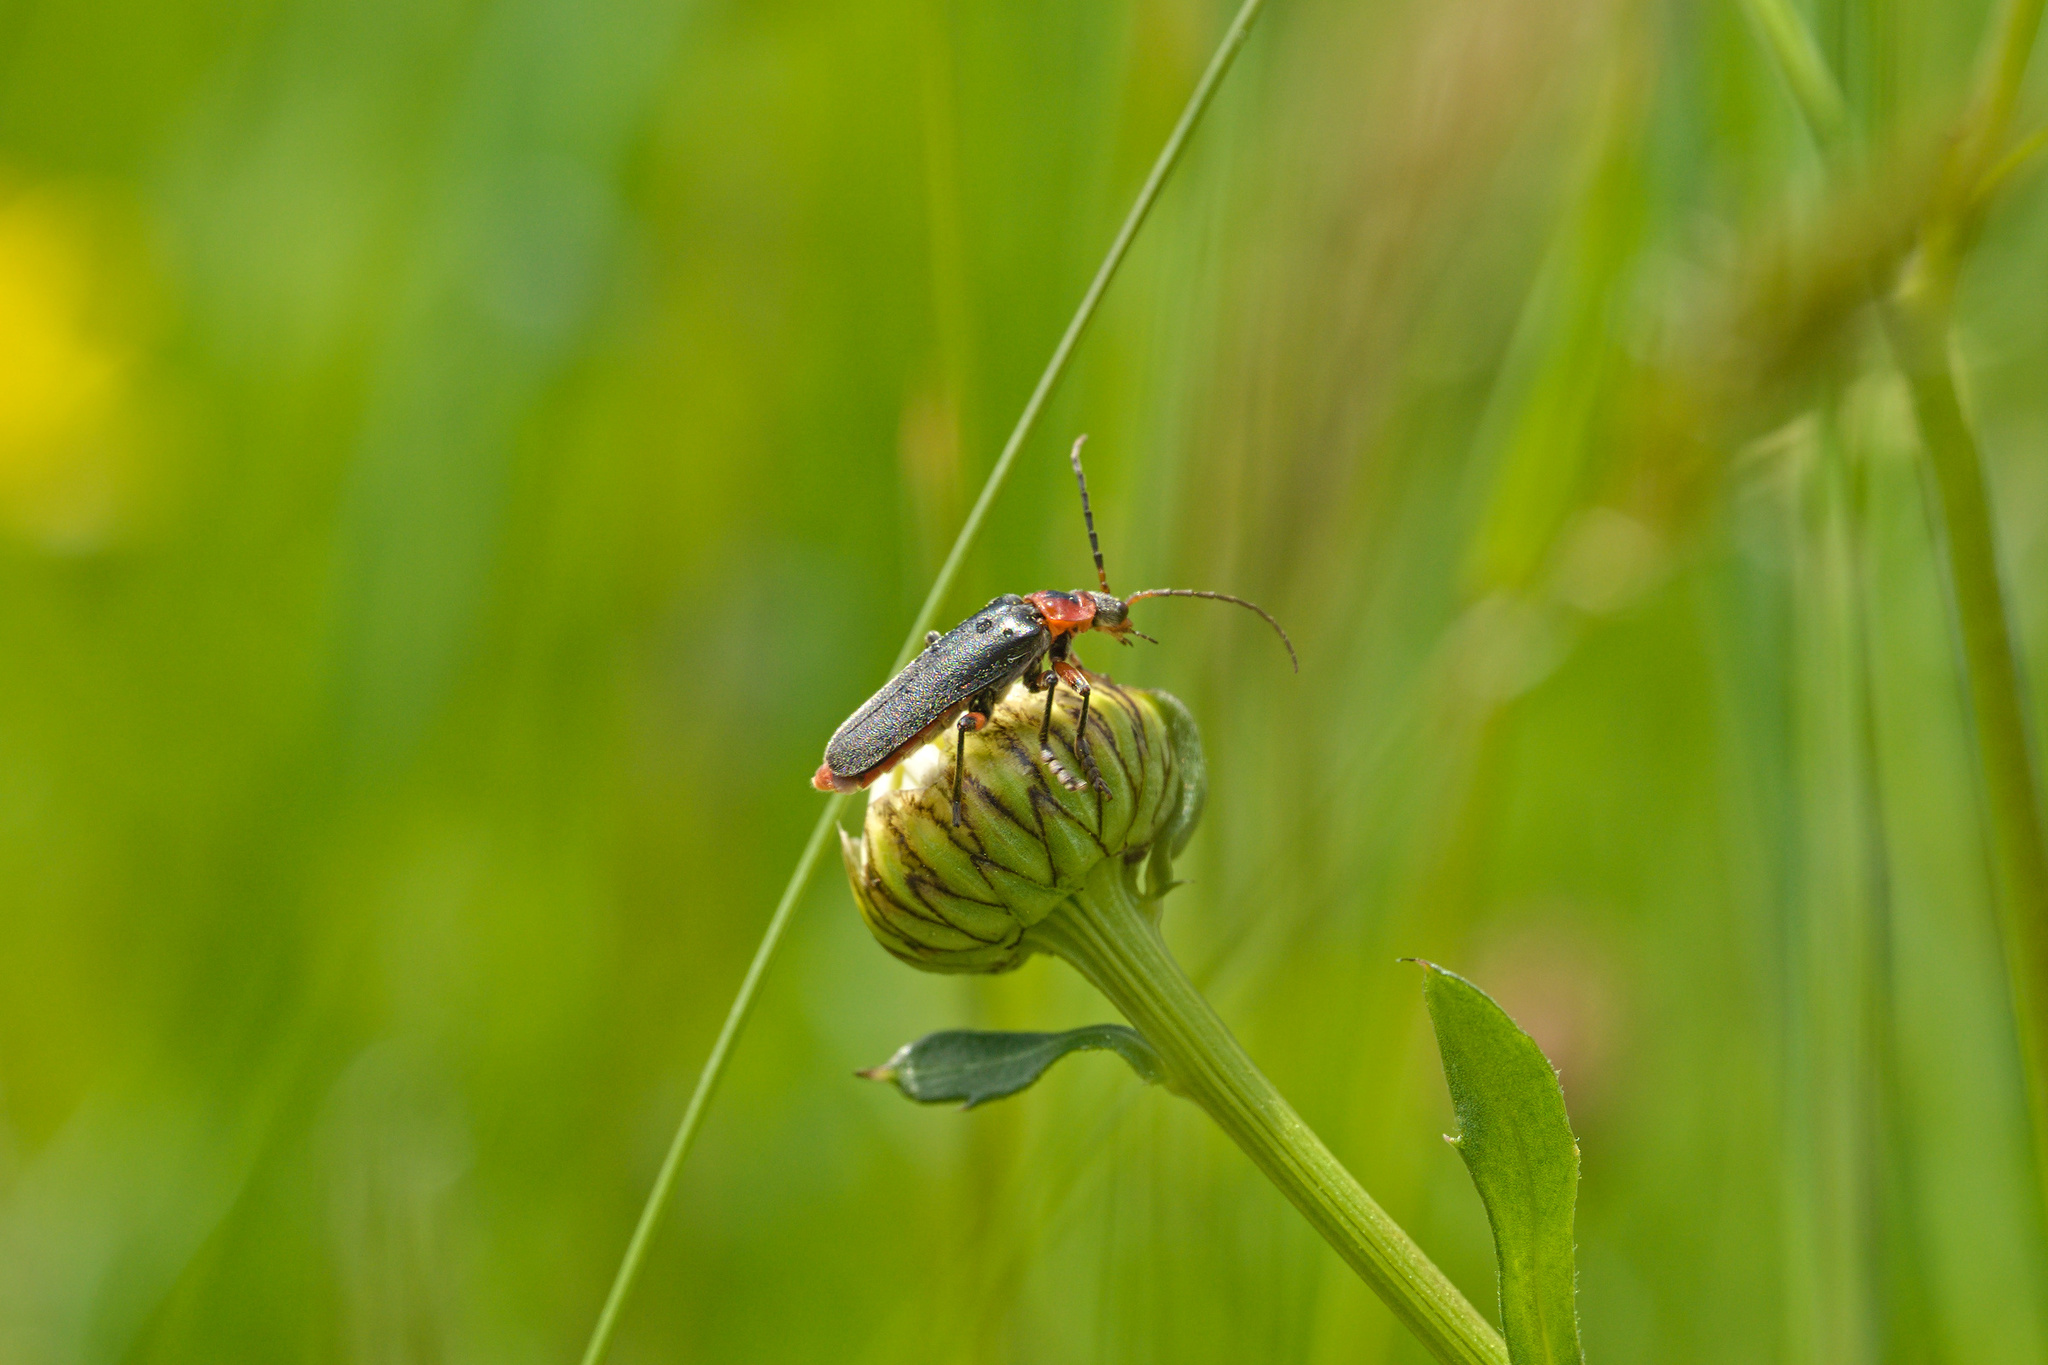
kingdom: Animalia
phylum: Arthropoda
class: Insecta
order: Coleoptera
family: Cantharidae
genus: Cantharis
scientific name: Cantharis rustica
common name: Soldier beetle
